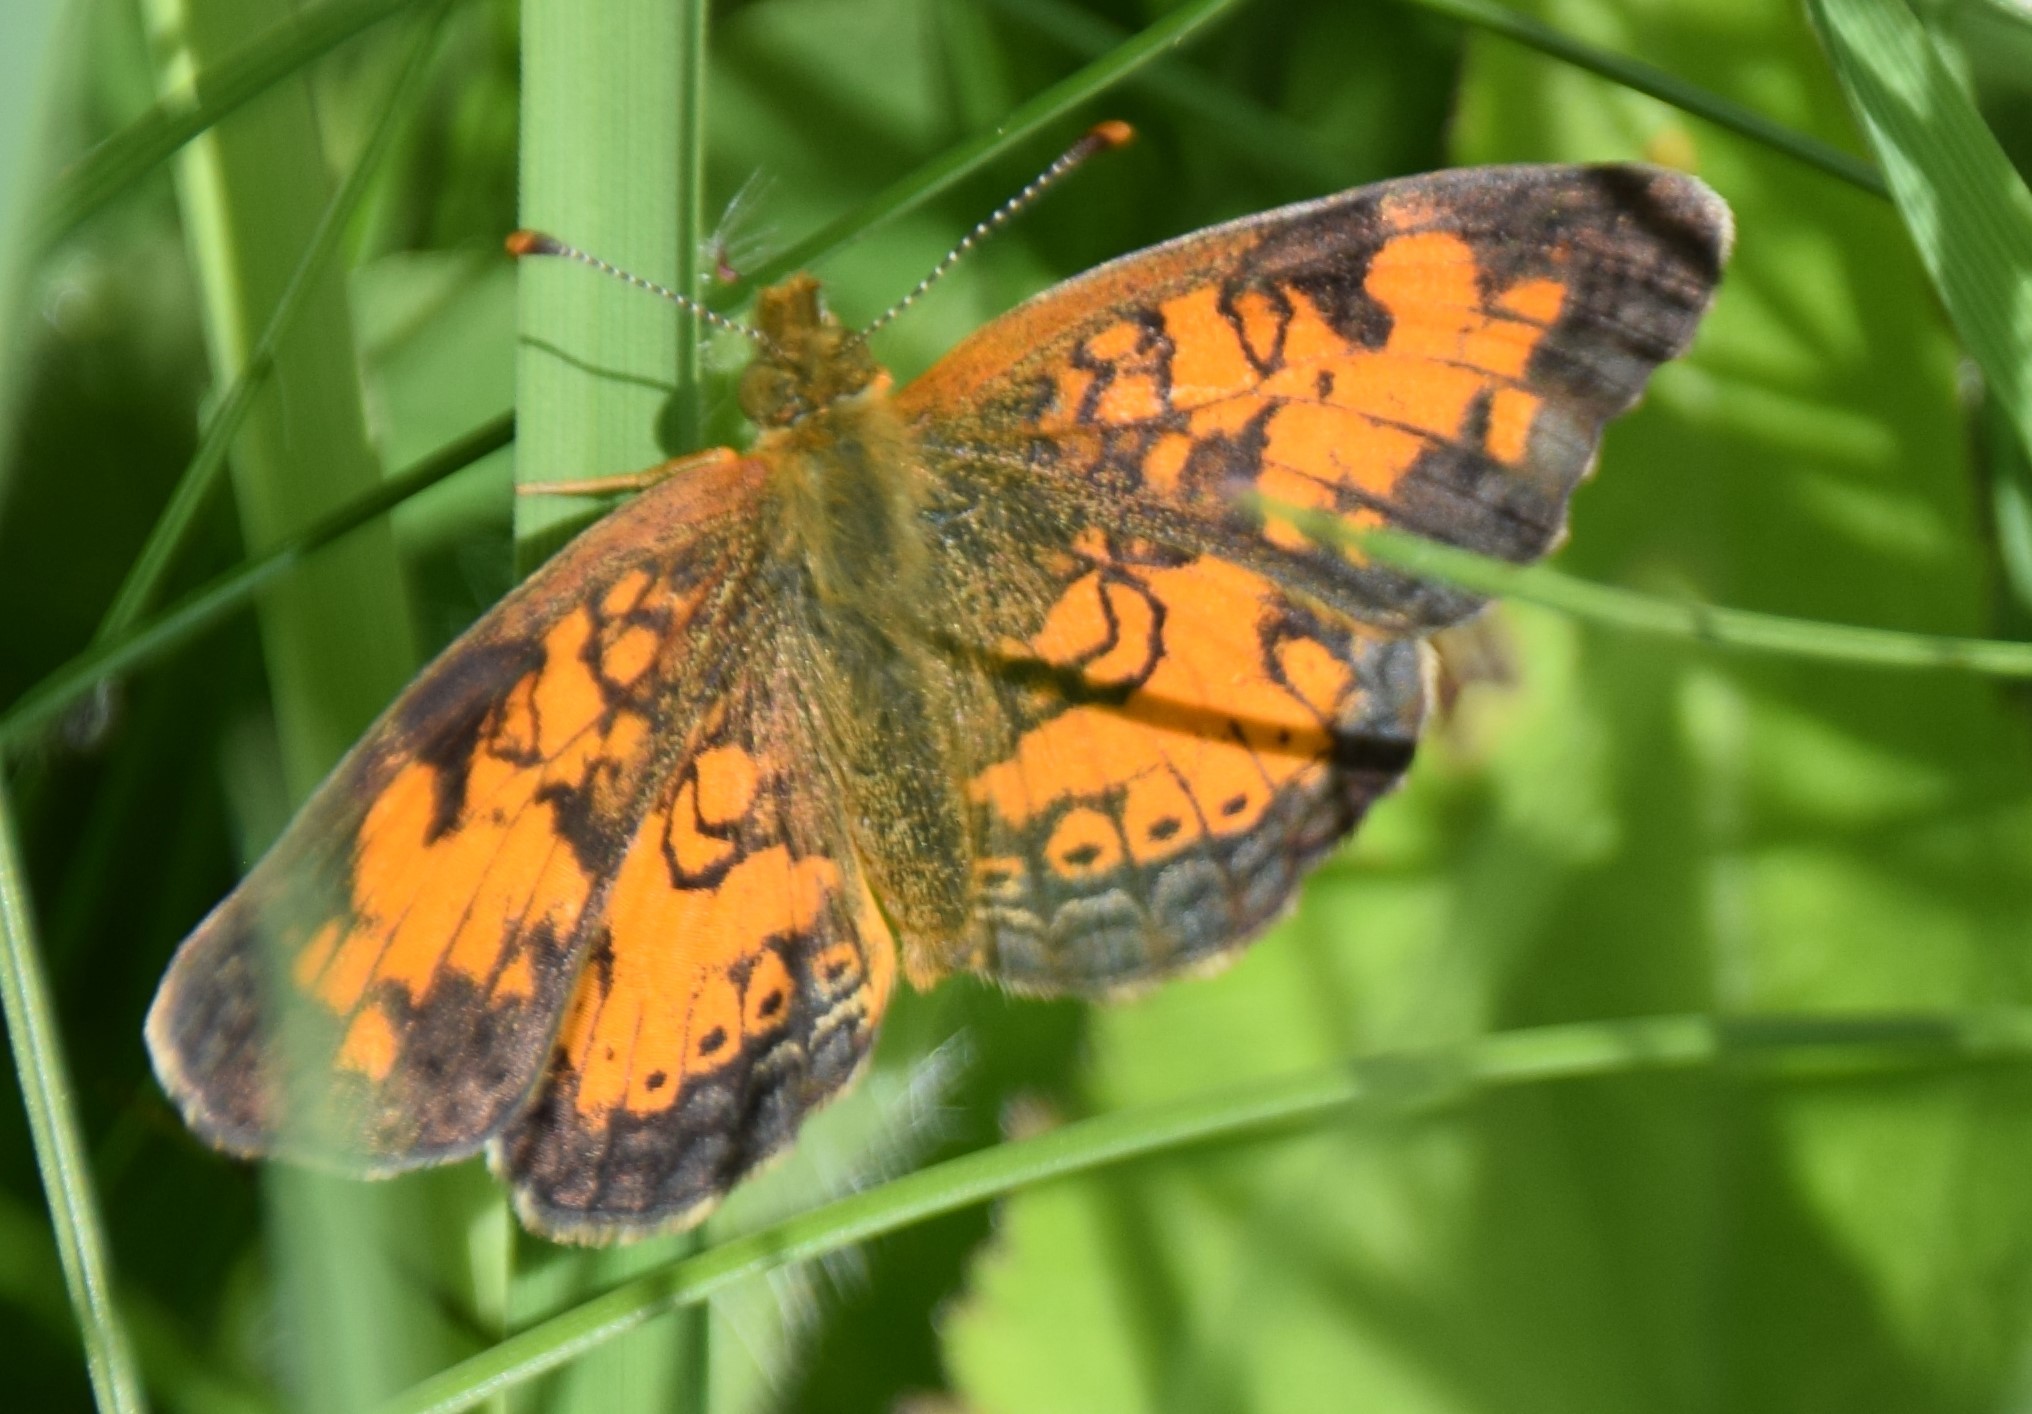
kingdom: Animalia
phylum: Arthropoda
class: Insecta
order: Lepidoptera
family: Nymphalidae
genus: Phyciodes
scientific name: Phyciodes tharos
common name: Pearl crescent
